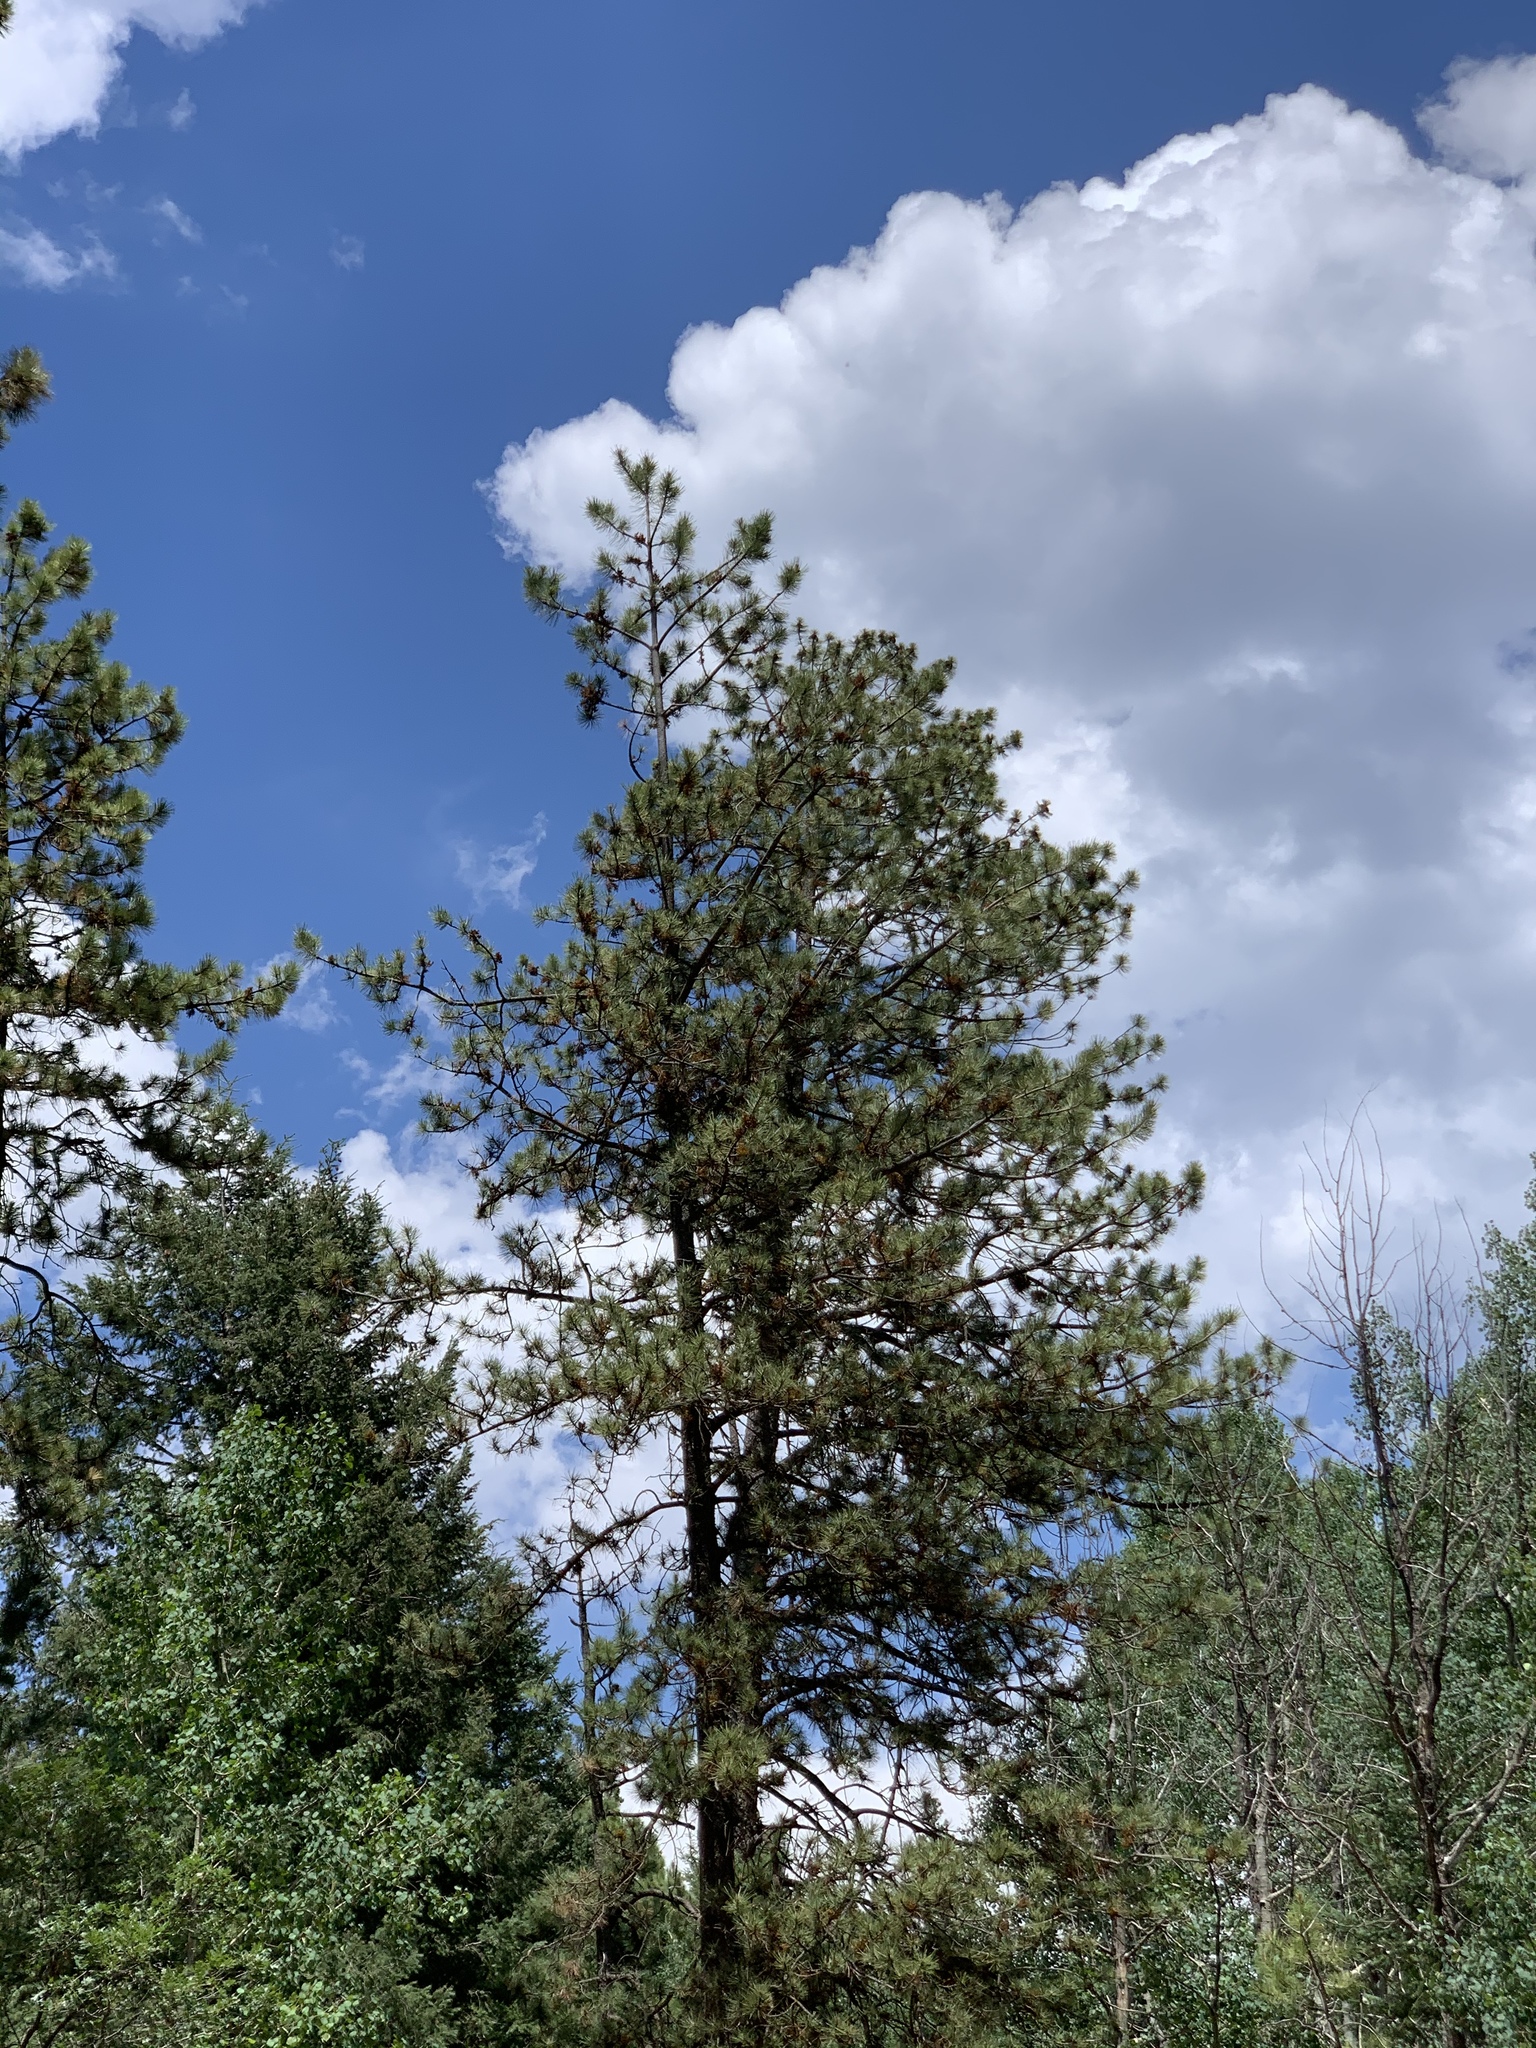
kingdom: Plantae
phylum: Tracheophyta
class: Pinopsida
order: Pinales
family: Pinaceae
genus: Pinus
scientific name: Pinus ponderosa
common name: Western yellow-pine
